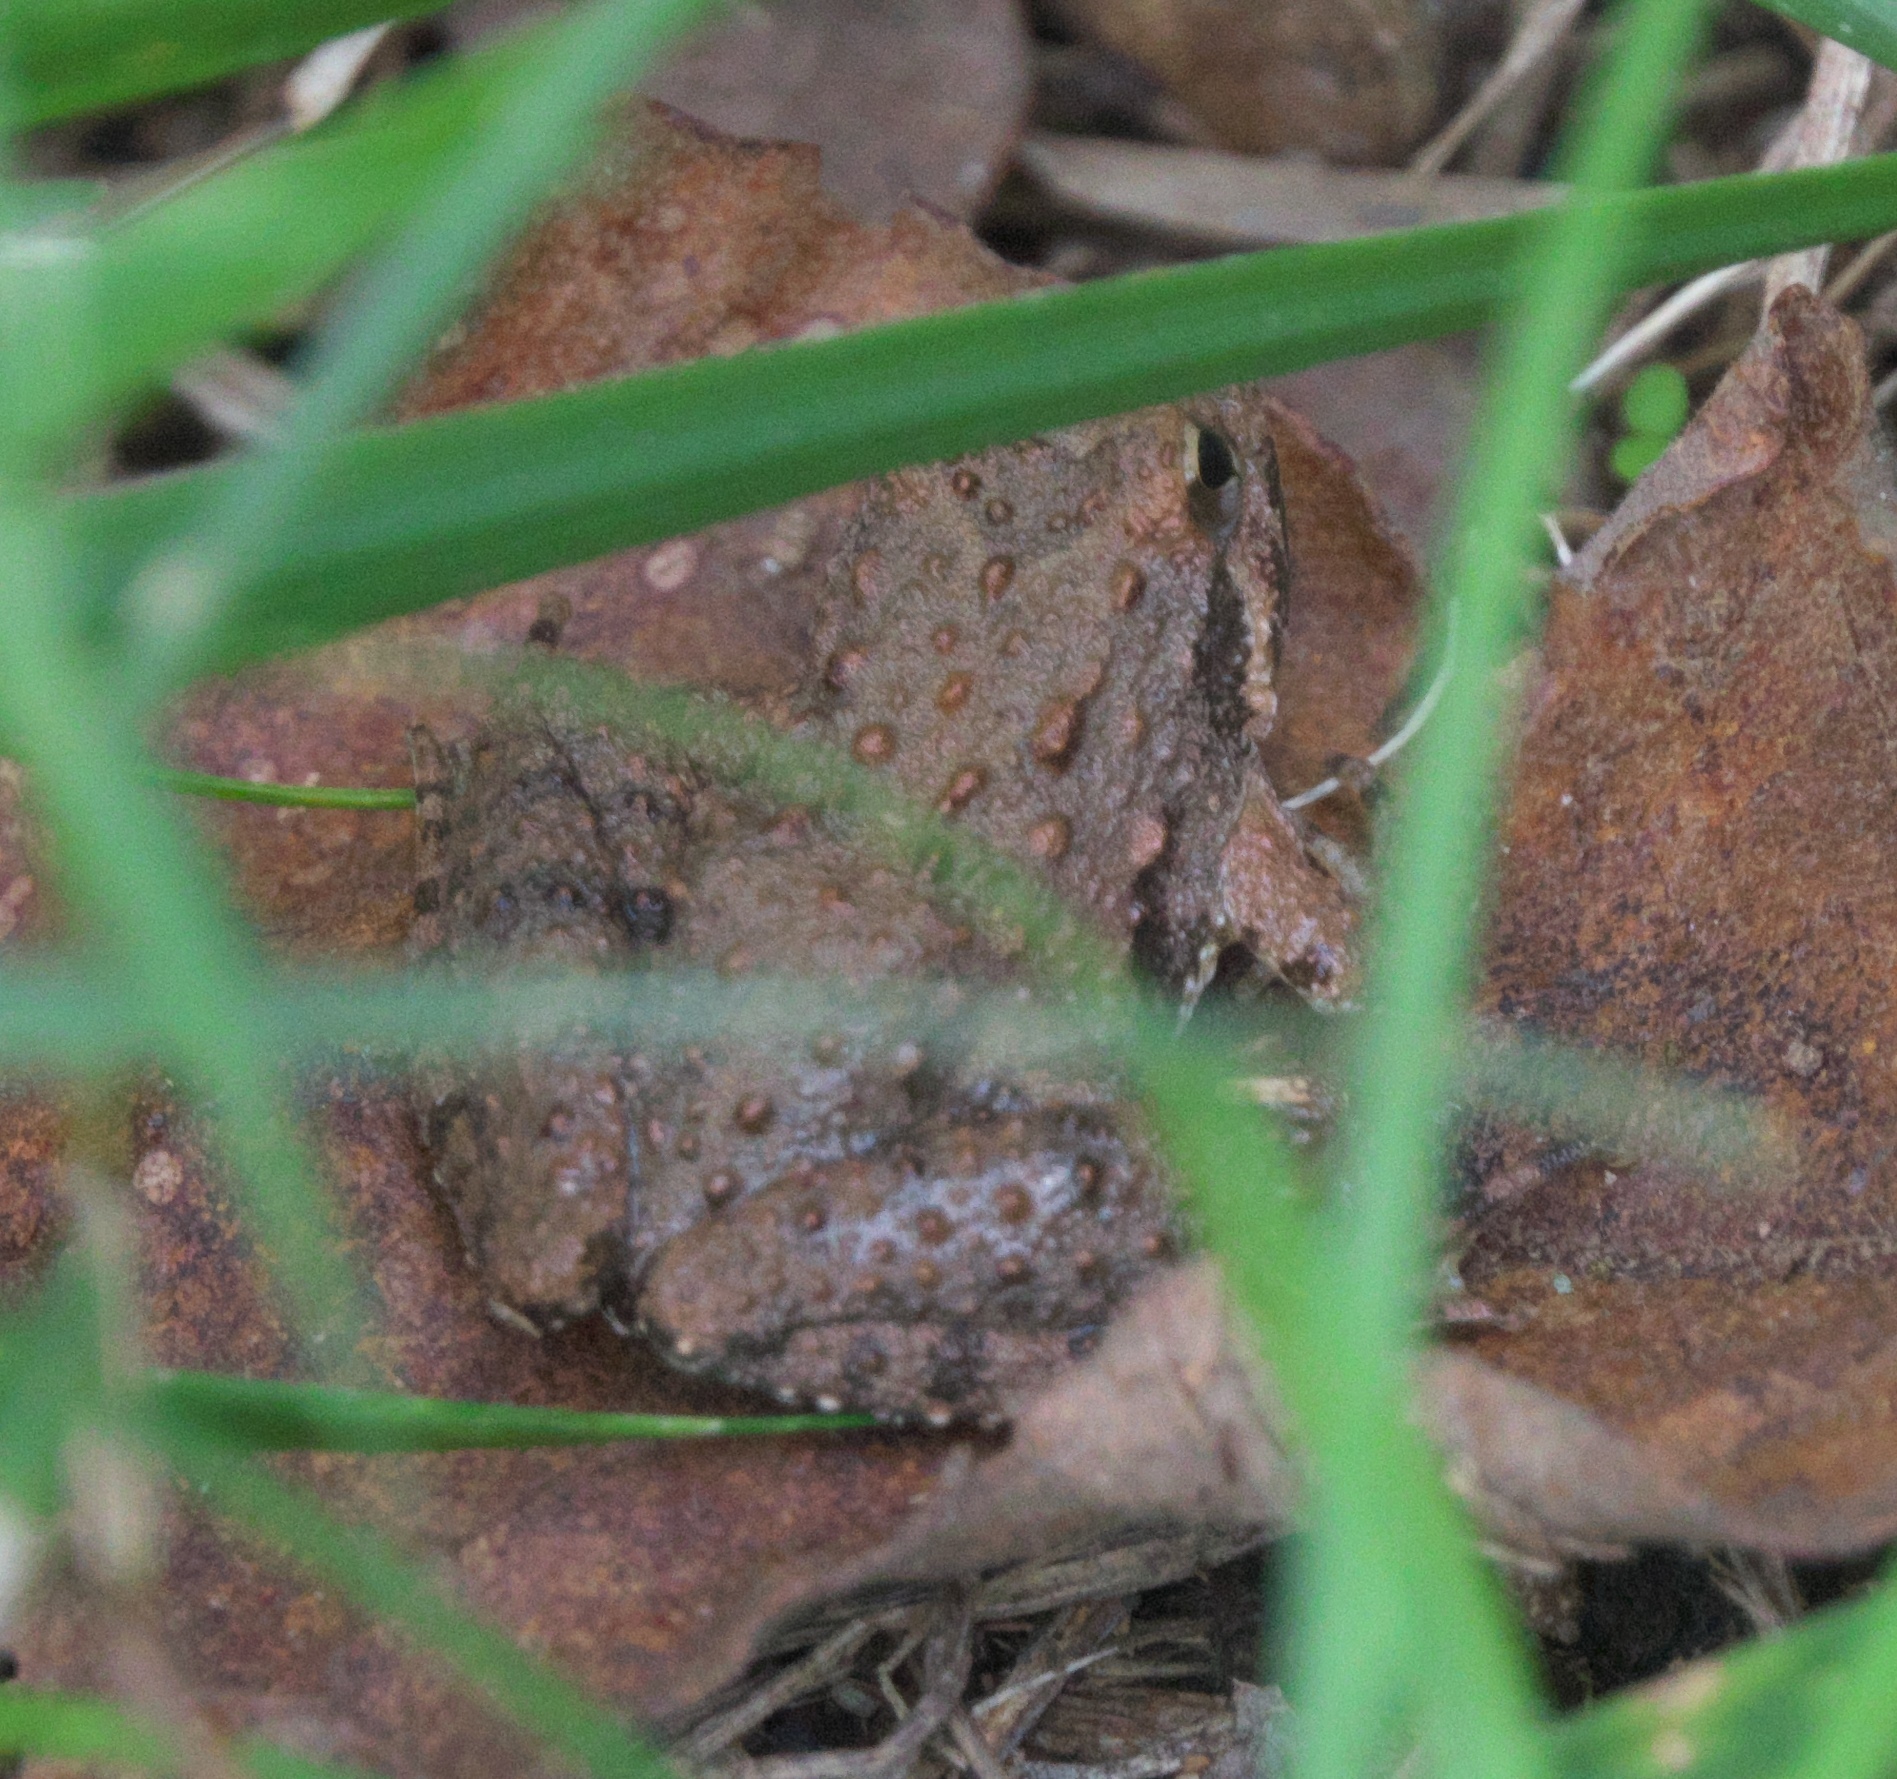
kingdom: Animalia
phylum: Chordata
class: Amphibia
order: Anura
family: Hylidae
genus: Acris
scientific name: Acris blanchardi
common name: Blanchard's cricket frog
